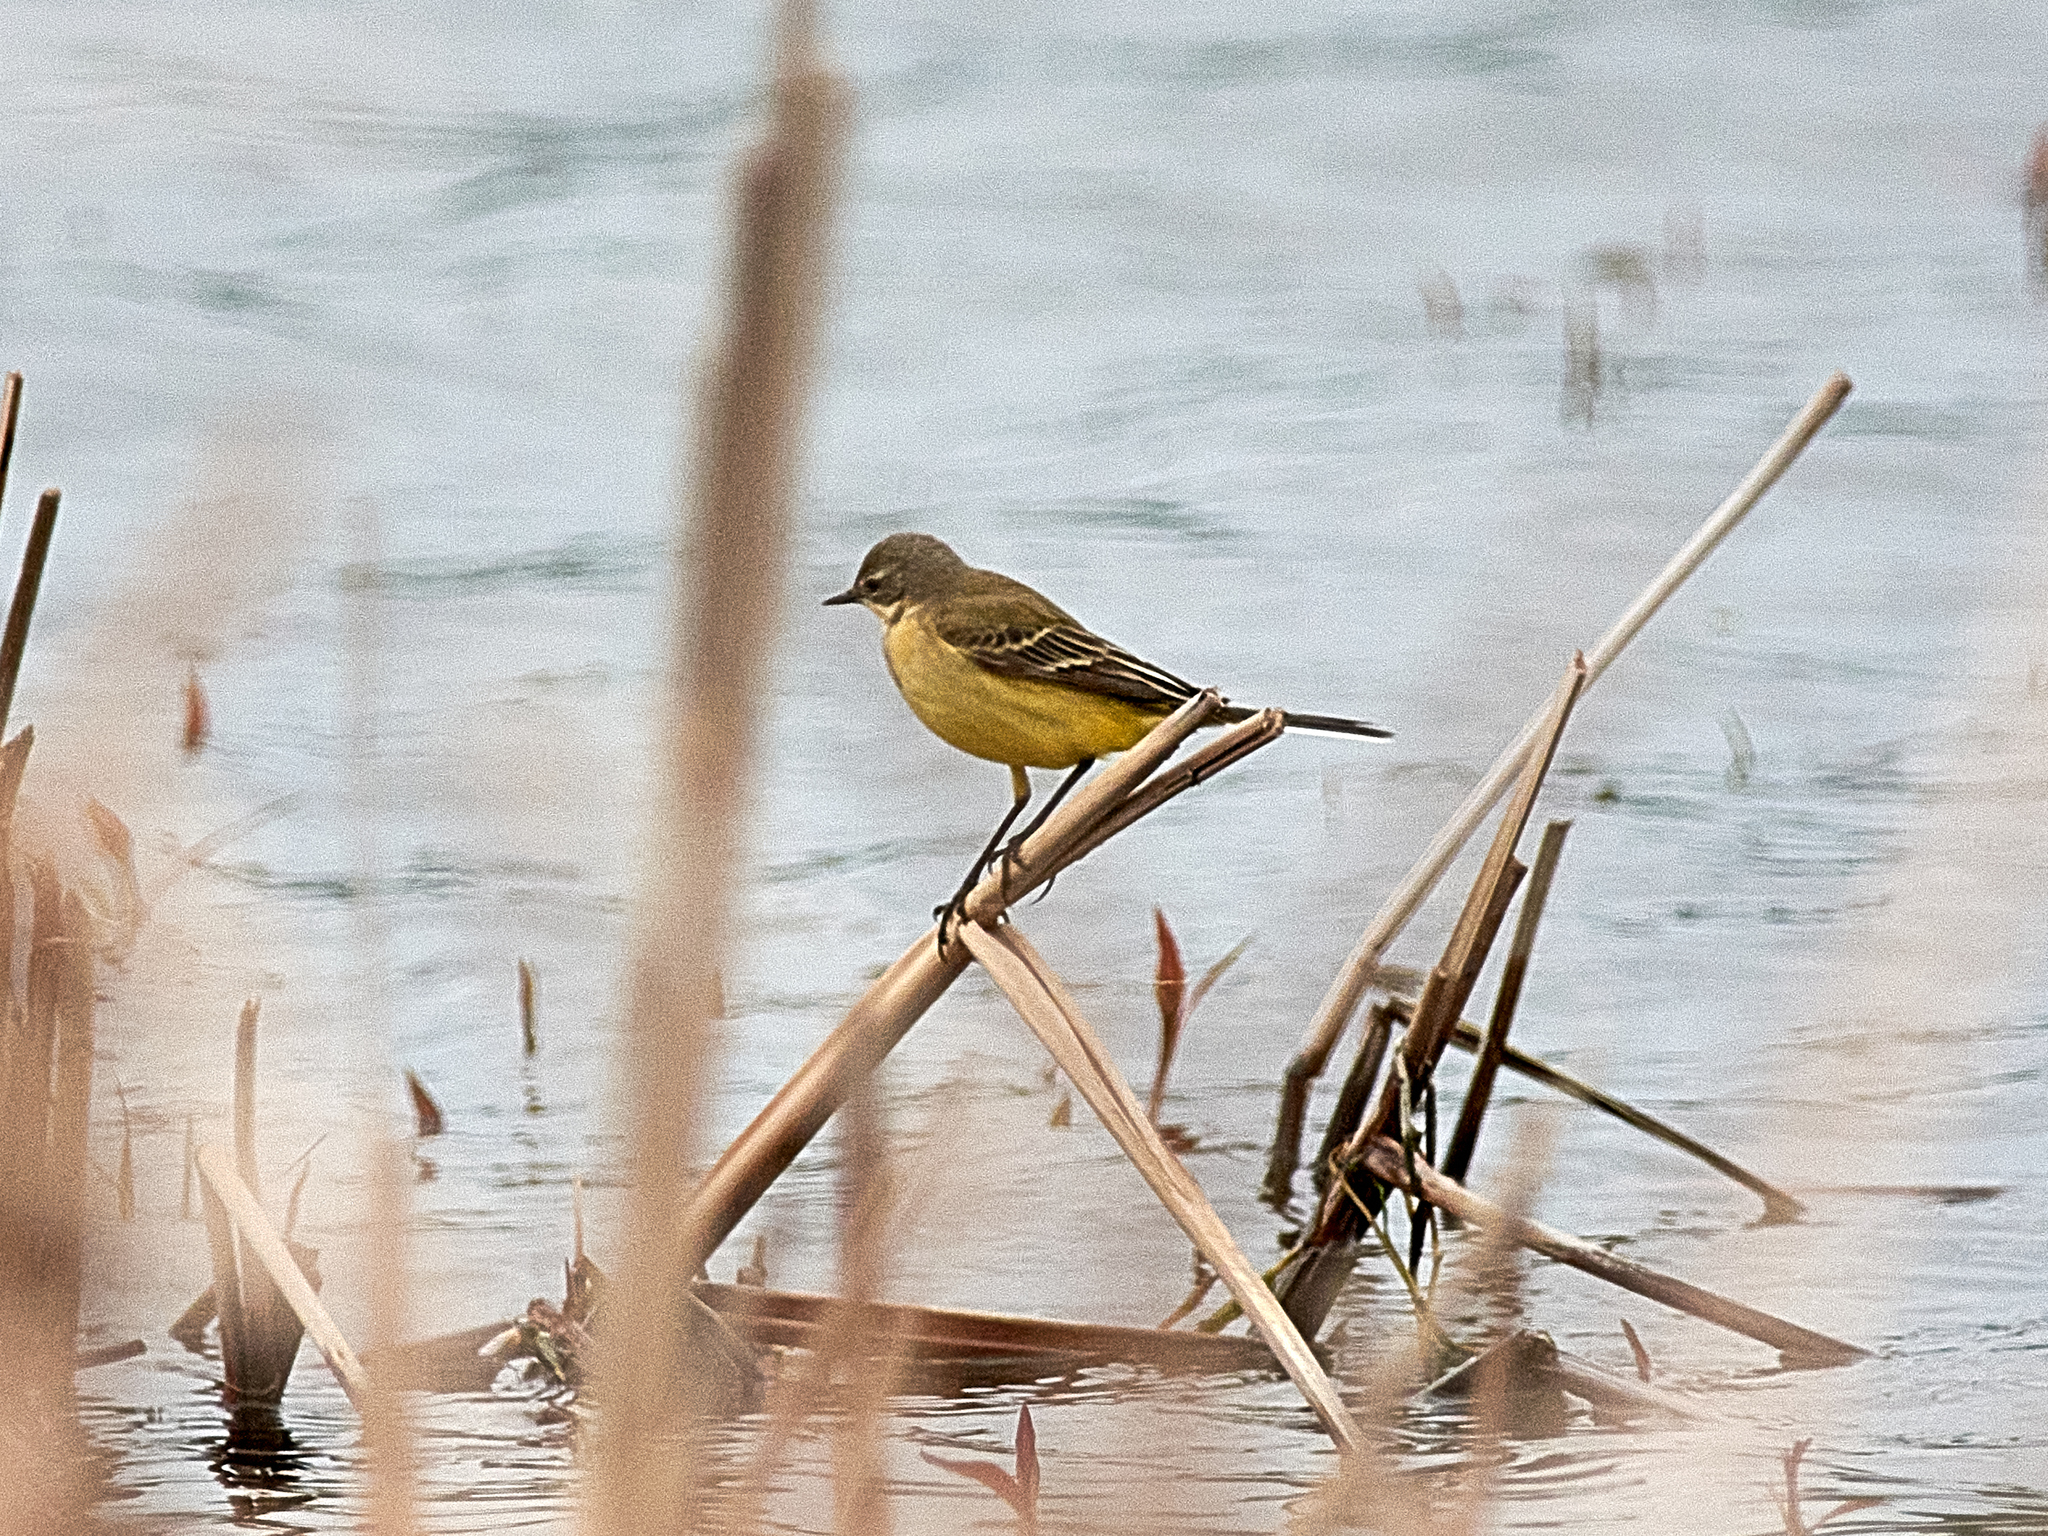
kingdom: Animalia
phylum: Chordata
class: Aves
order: Passeriformes
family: Motacillidae
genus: Motacilla
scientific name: Motacilla flava
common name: Western yellow wagtail
